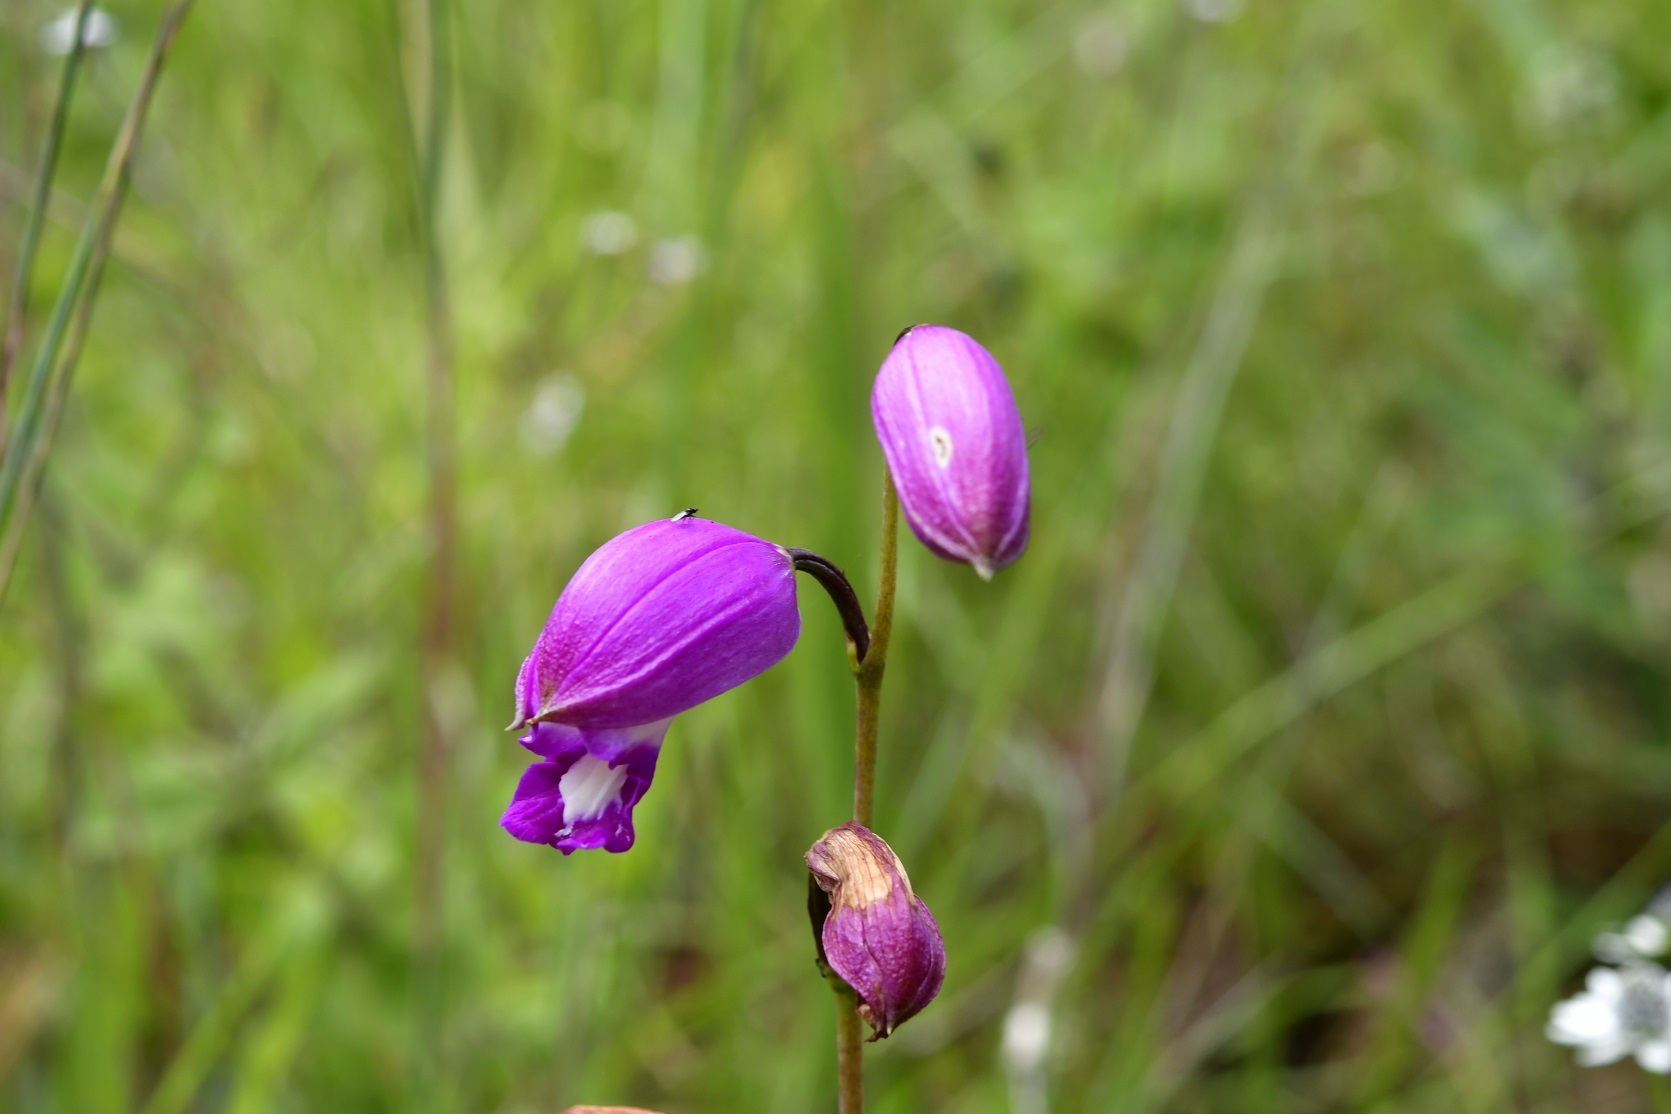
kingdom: Plantae
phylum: Tracheophyta
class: Liliopsida
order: Asparagales
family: Orchidaceae
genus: Bletia
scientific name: Bletia campanulata
